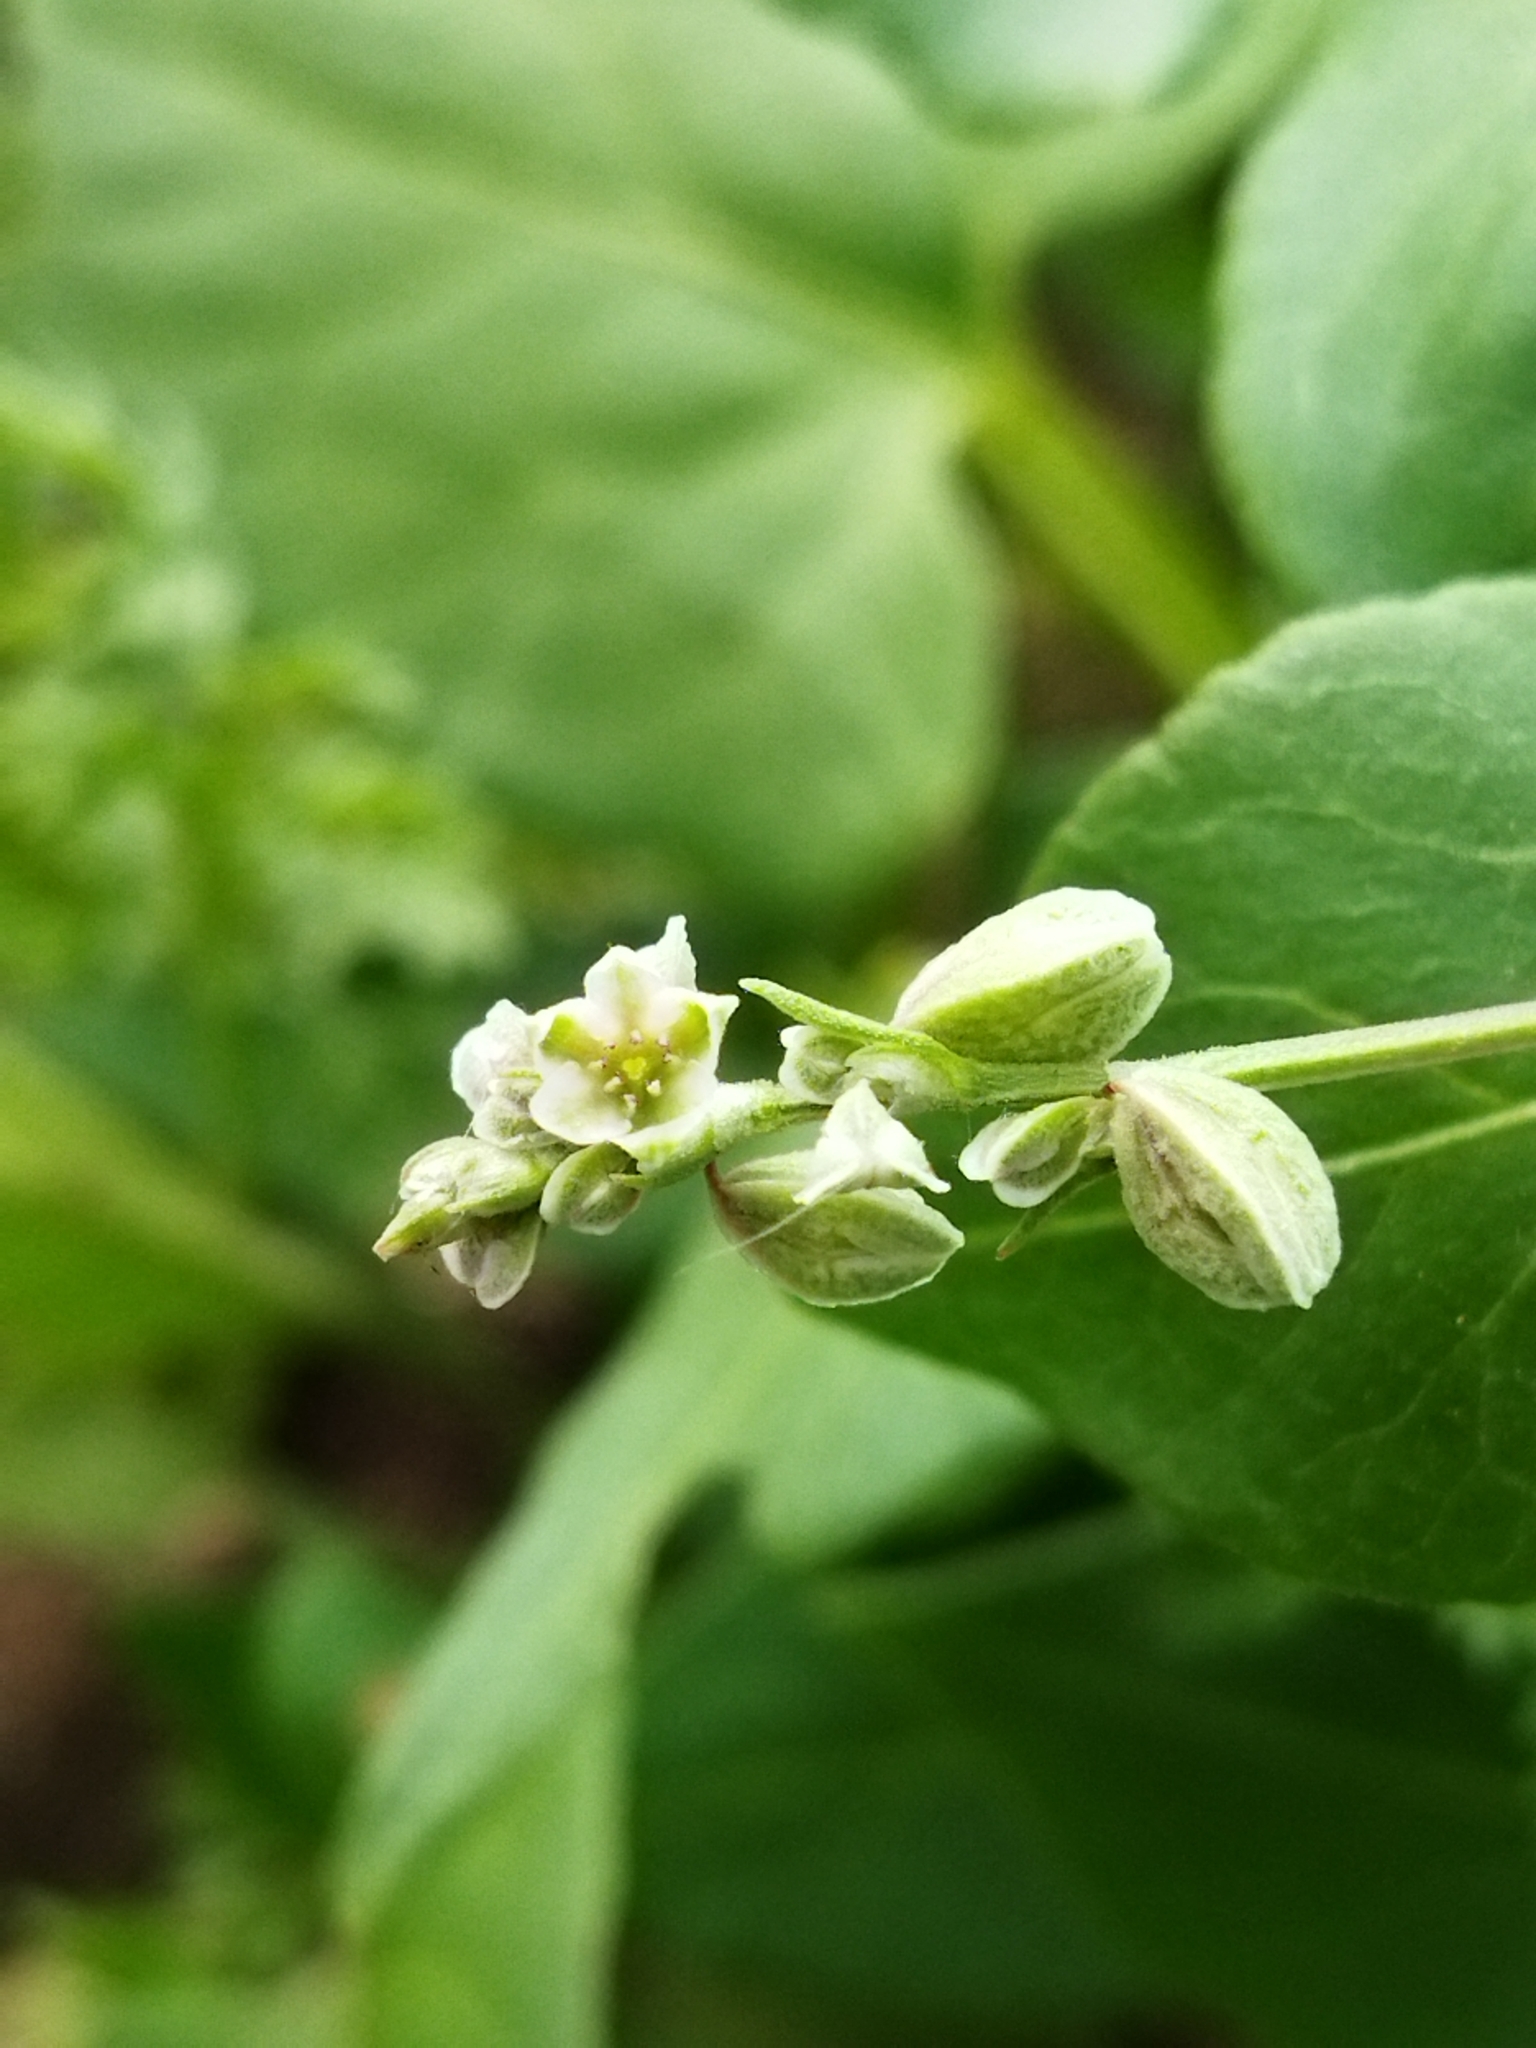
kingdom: Plantae
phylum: Tracheophyta
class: Magnoliopsida
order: Caryophyllales
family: Polygonaceae
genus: Fallopia
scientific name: Fallopia convolvulus
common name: Black bindweed
